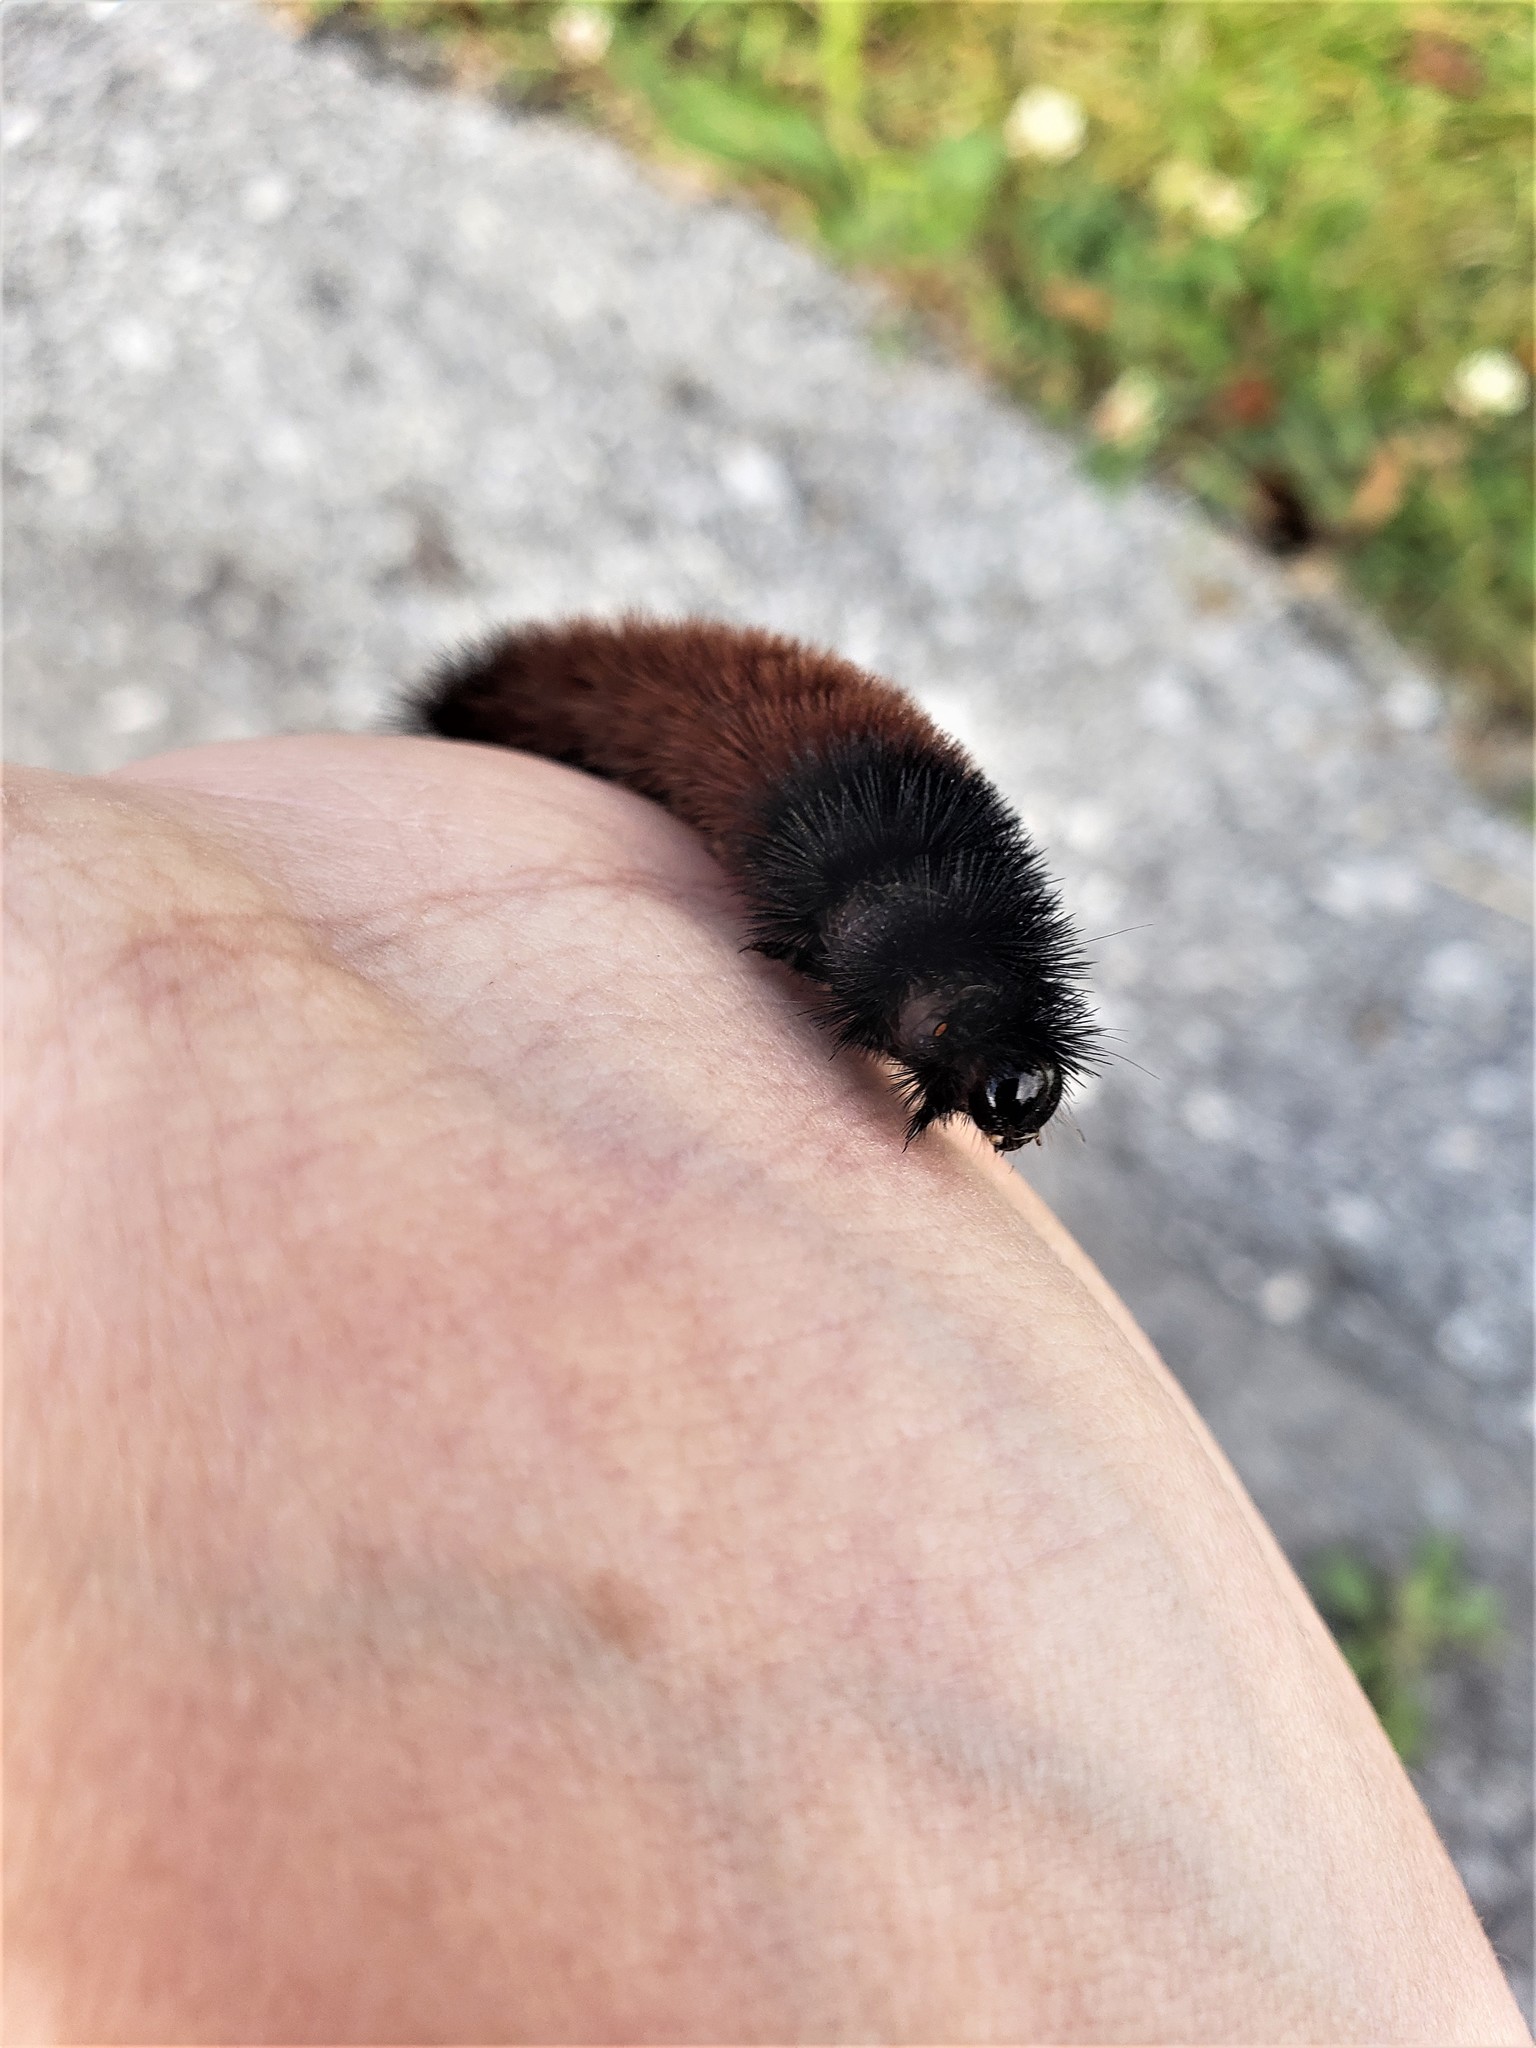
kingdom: Animalia
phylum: Arthropoda
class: Insecta
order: Lepidoptera
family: Erebidae
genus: Pyrrharctia
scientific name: Pyrrharctia isabella
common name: Isabella tiger moth
